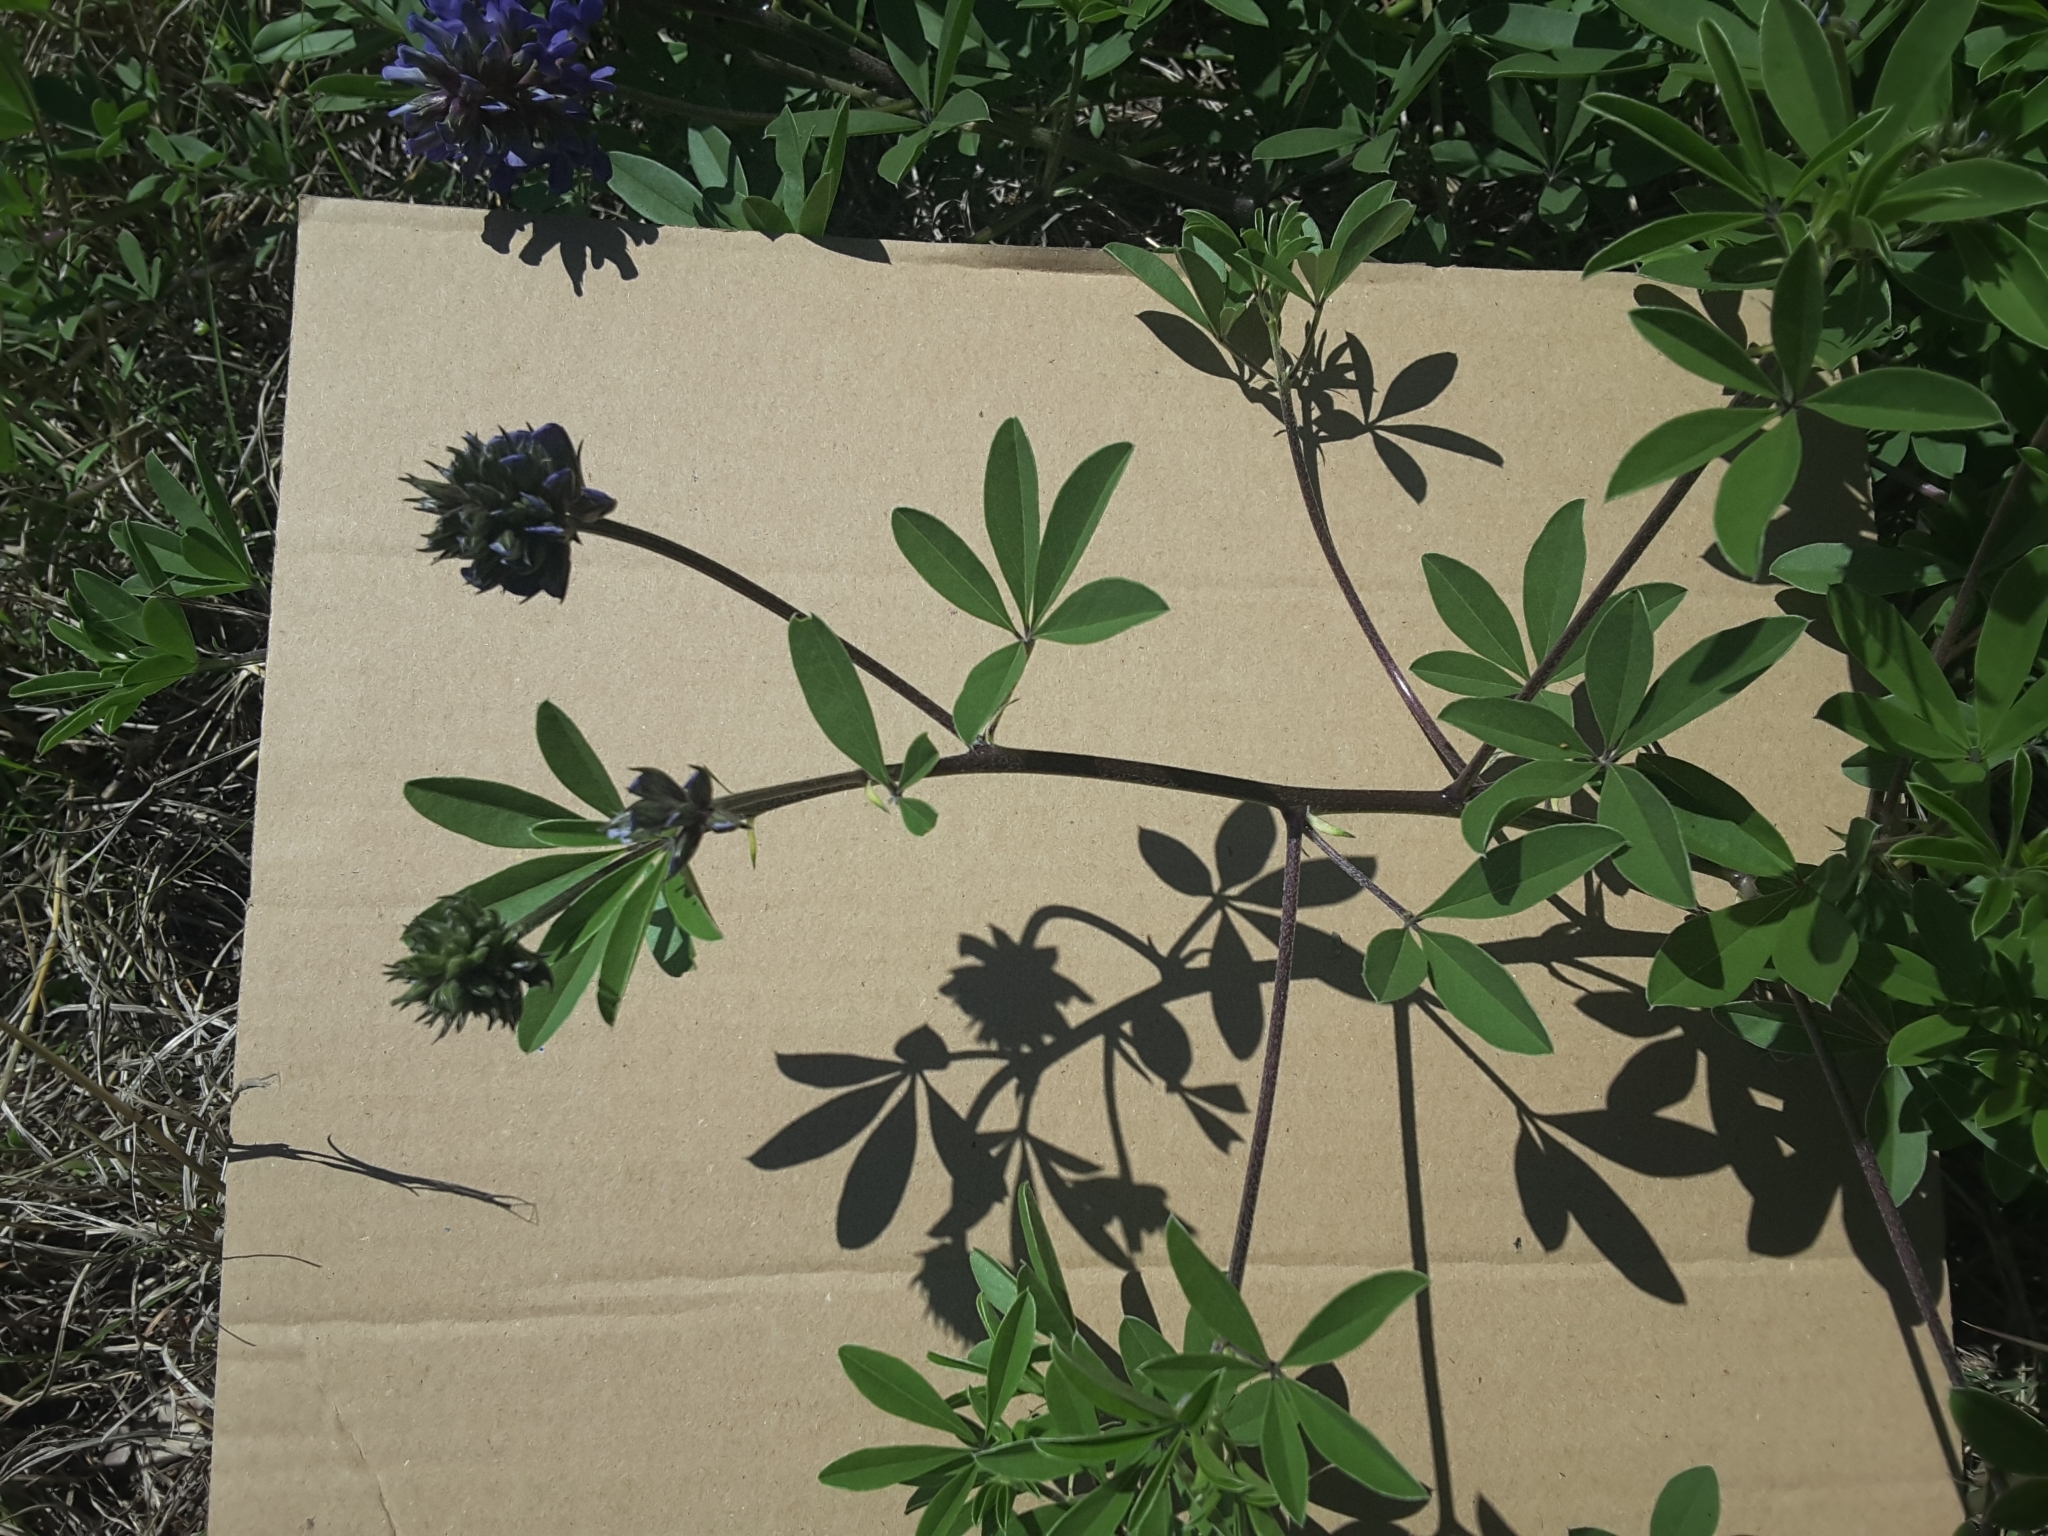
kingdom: Plantae
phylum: Tracheophyta
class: Magnoliopsida
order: Fabales
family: Fabaceae
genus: Pediomelum
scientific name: Pediomelum cuspidatum
